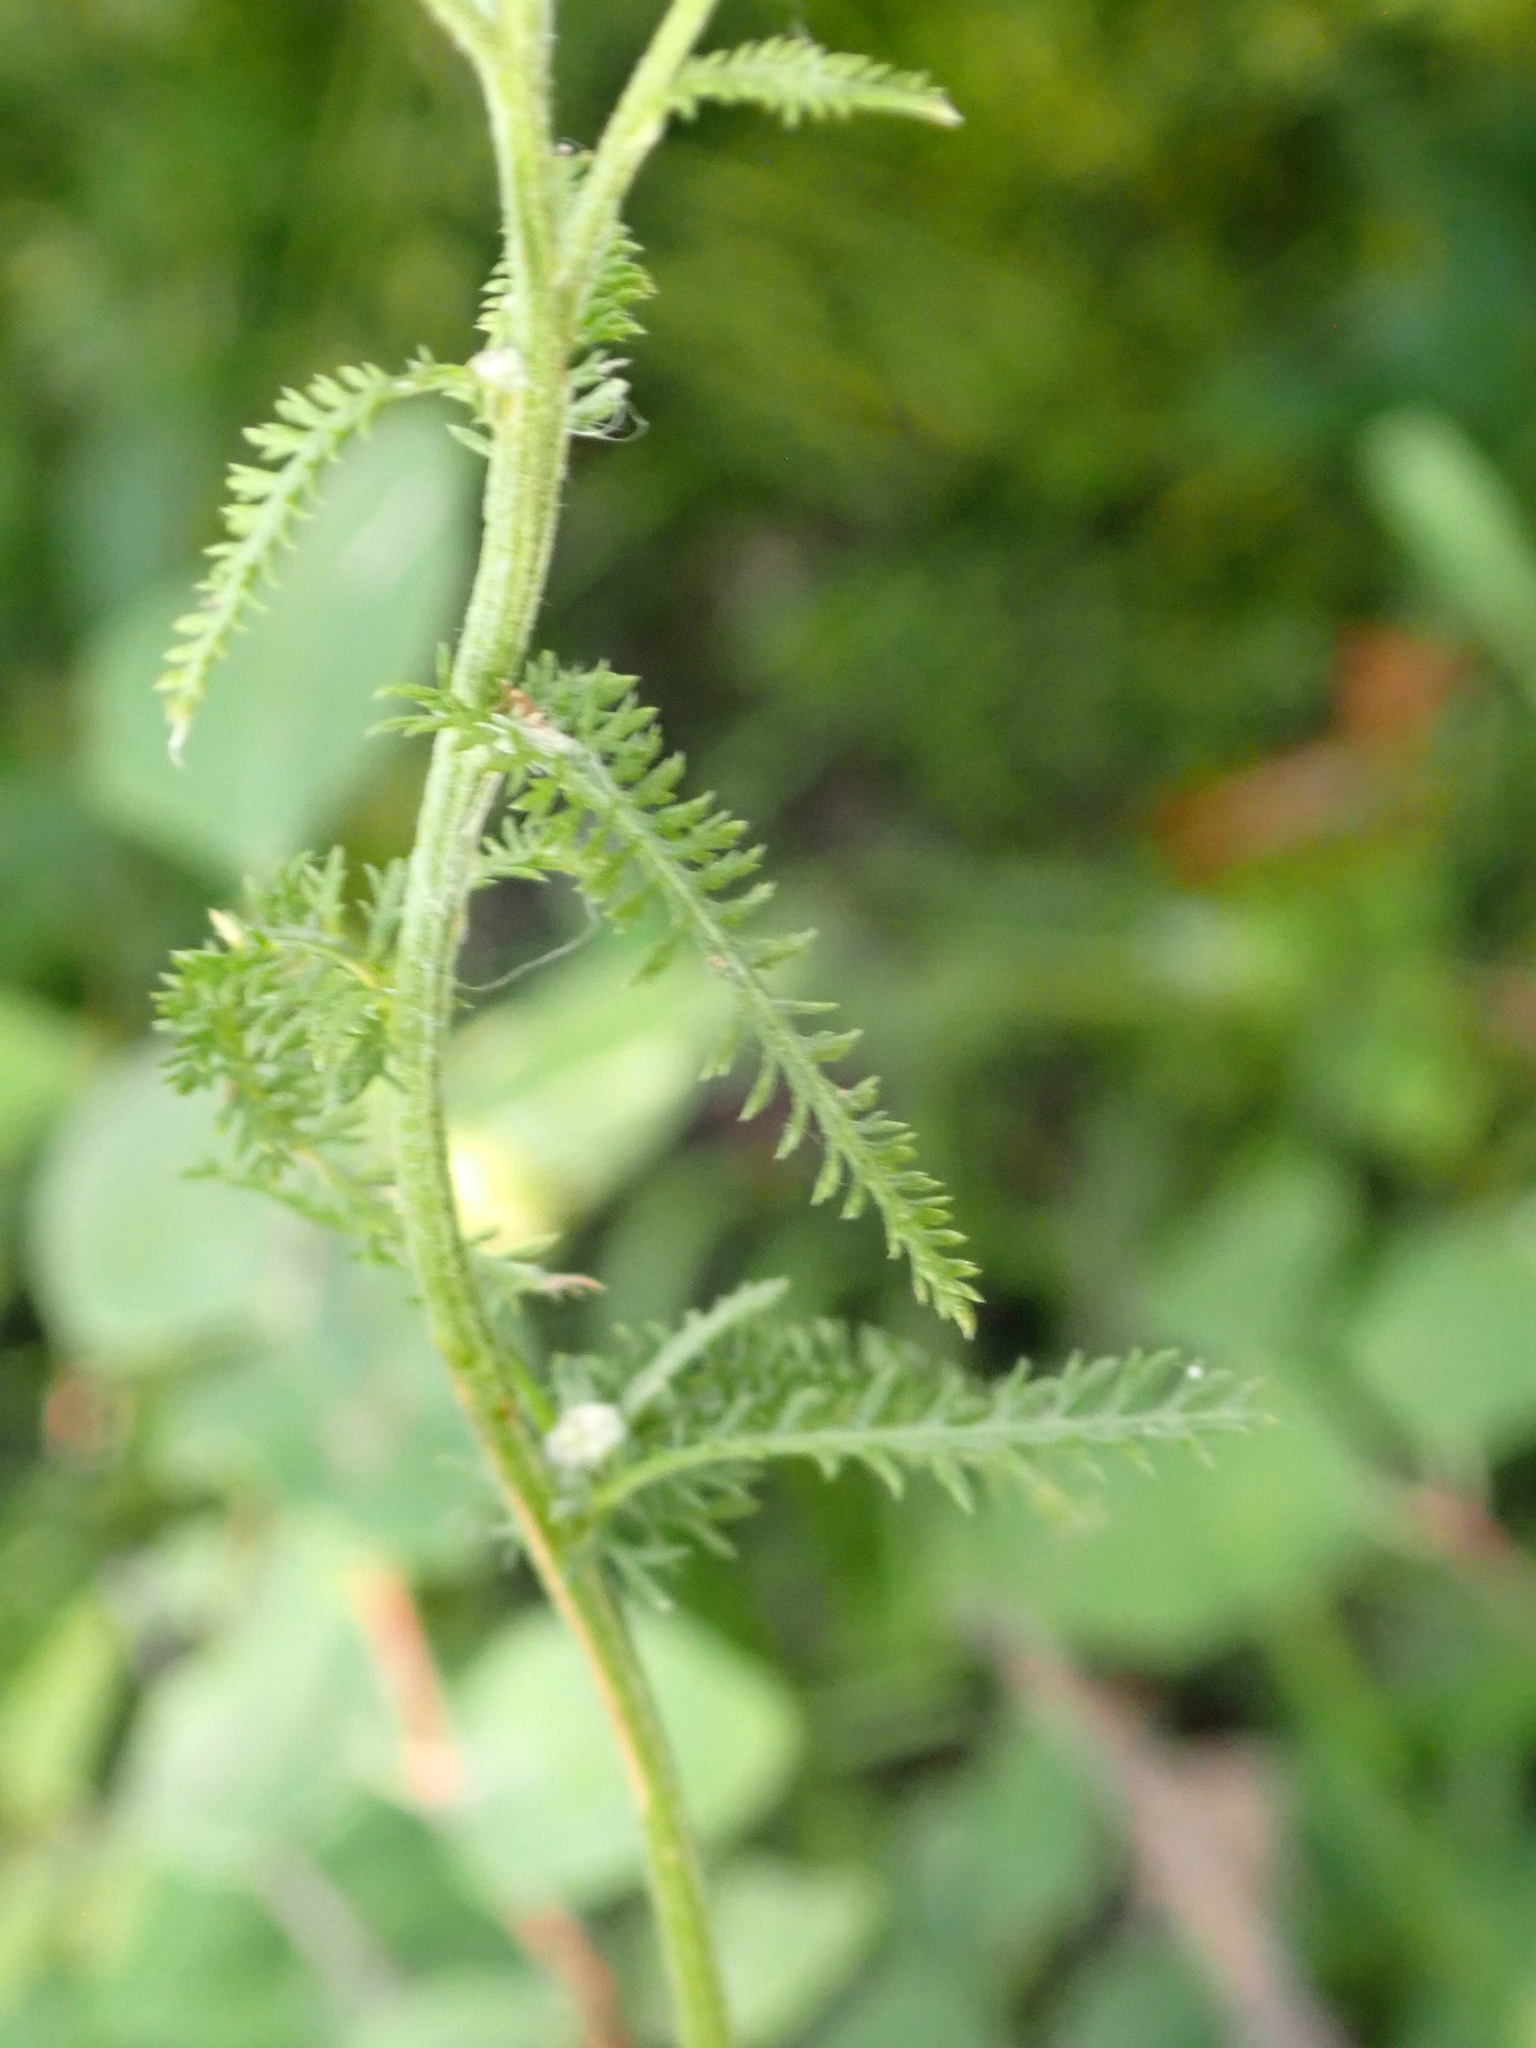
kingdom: Plantae
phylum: Tracheophyta
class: Magnoliopsida
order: Asterales
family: Asteraceae
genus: Achillea
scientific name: Achillea millefolium
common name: Yarrow
